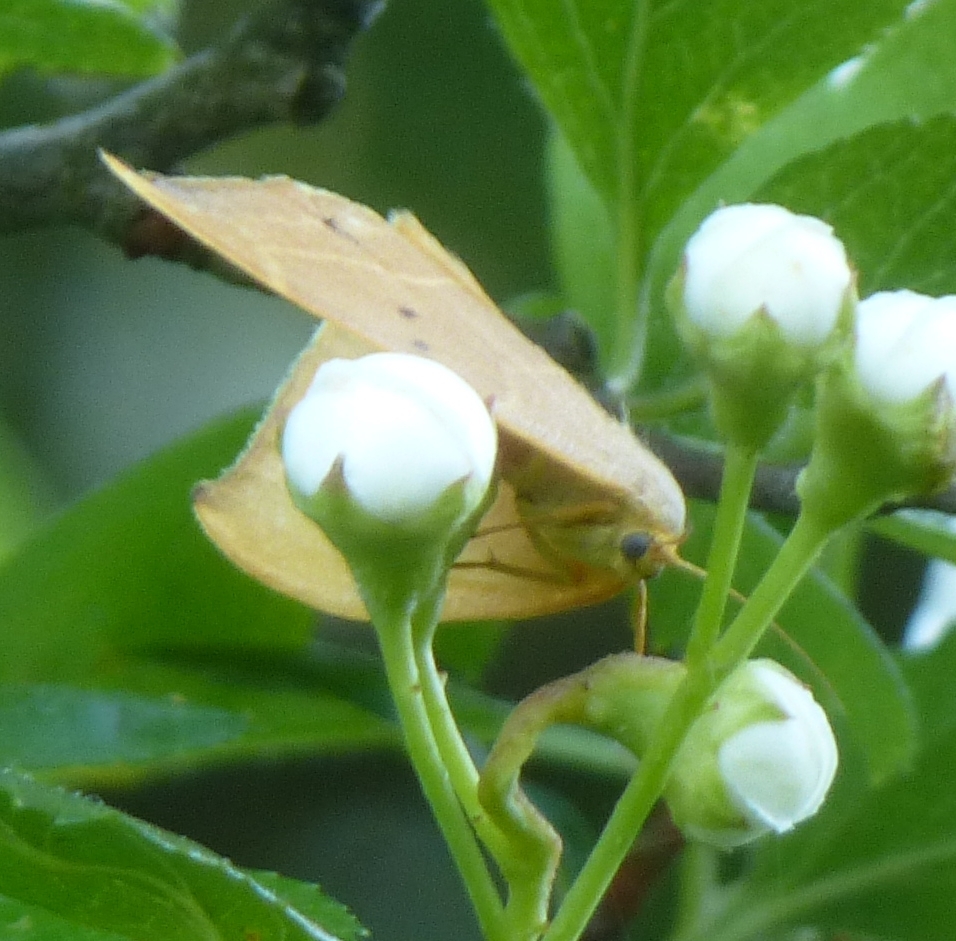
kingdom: Animalia
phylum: Arthropoda
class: Insecta
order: Lepidoptera
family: Drepanidae
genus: Watsonalla
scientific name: Watsonalla binaria
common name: Oak hook-tip
